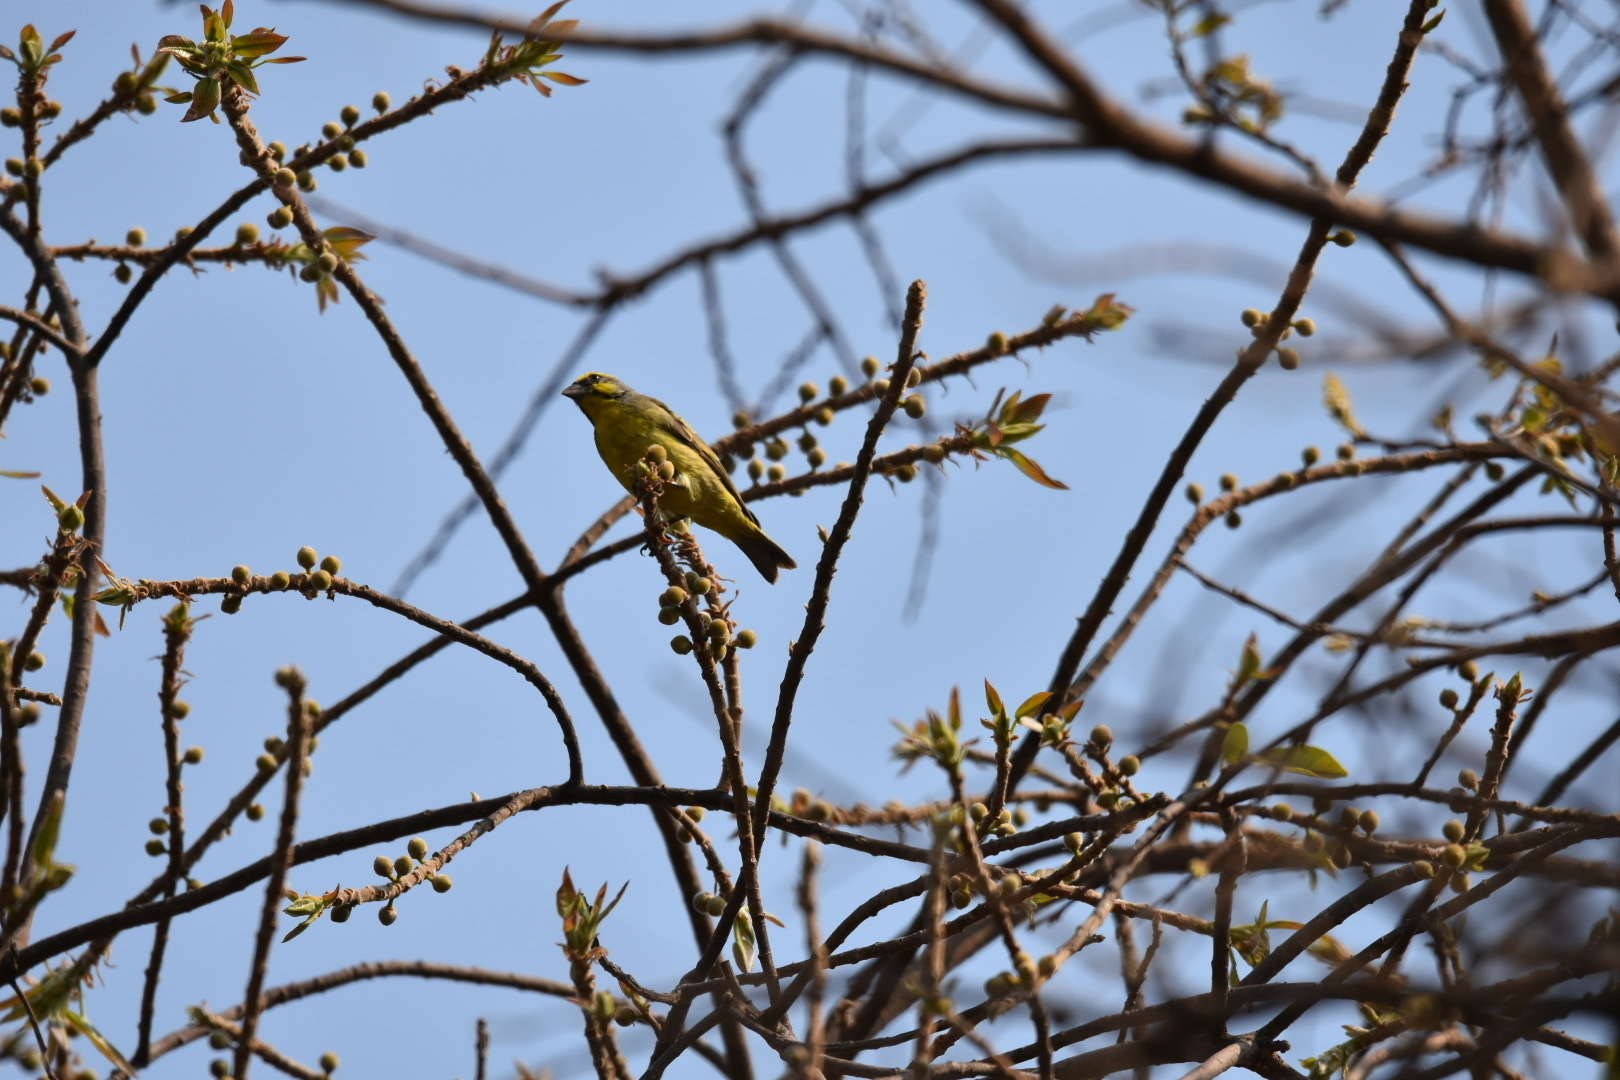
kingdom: Animalia
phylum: Chordata
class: Aves
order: Passeriformes
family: Fringillidae
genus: Crithagra
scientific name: Crithagra mozambica
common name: Yellow-fronted canary
